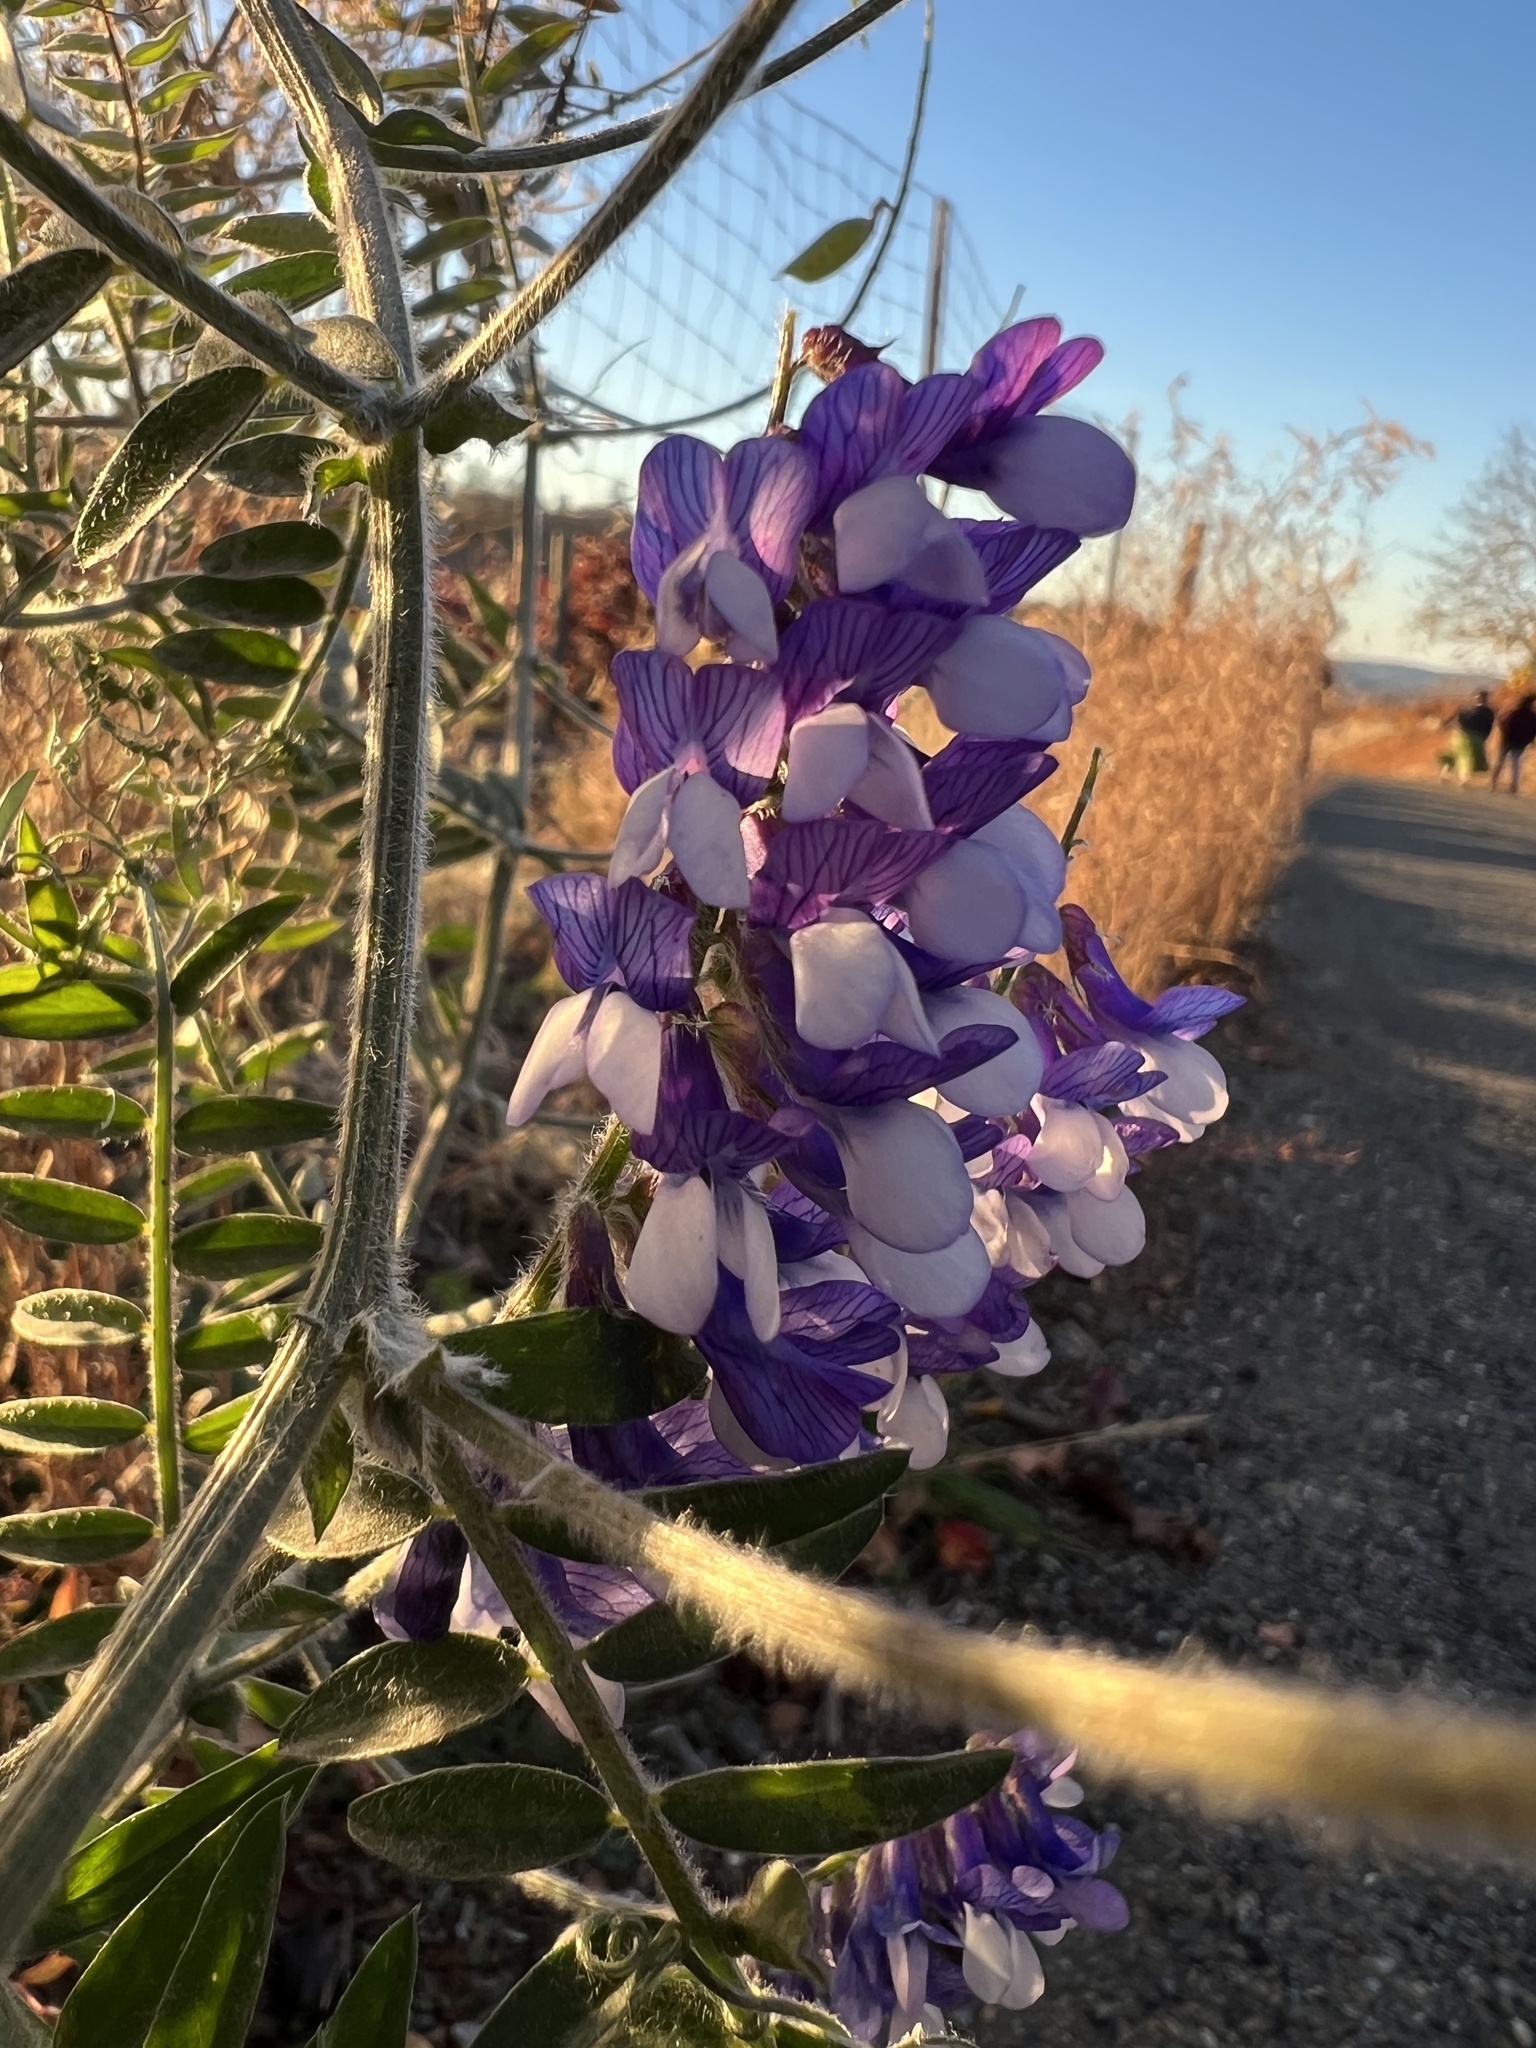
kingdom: Plantae
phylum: Tracheophyta
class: Magnoliopsida
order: Fabales
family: Fabaceae
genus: Vicia
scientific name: Vicia villosa
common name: Fodder vetch
